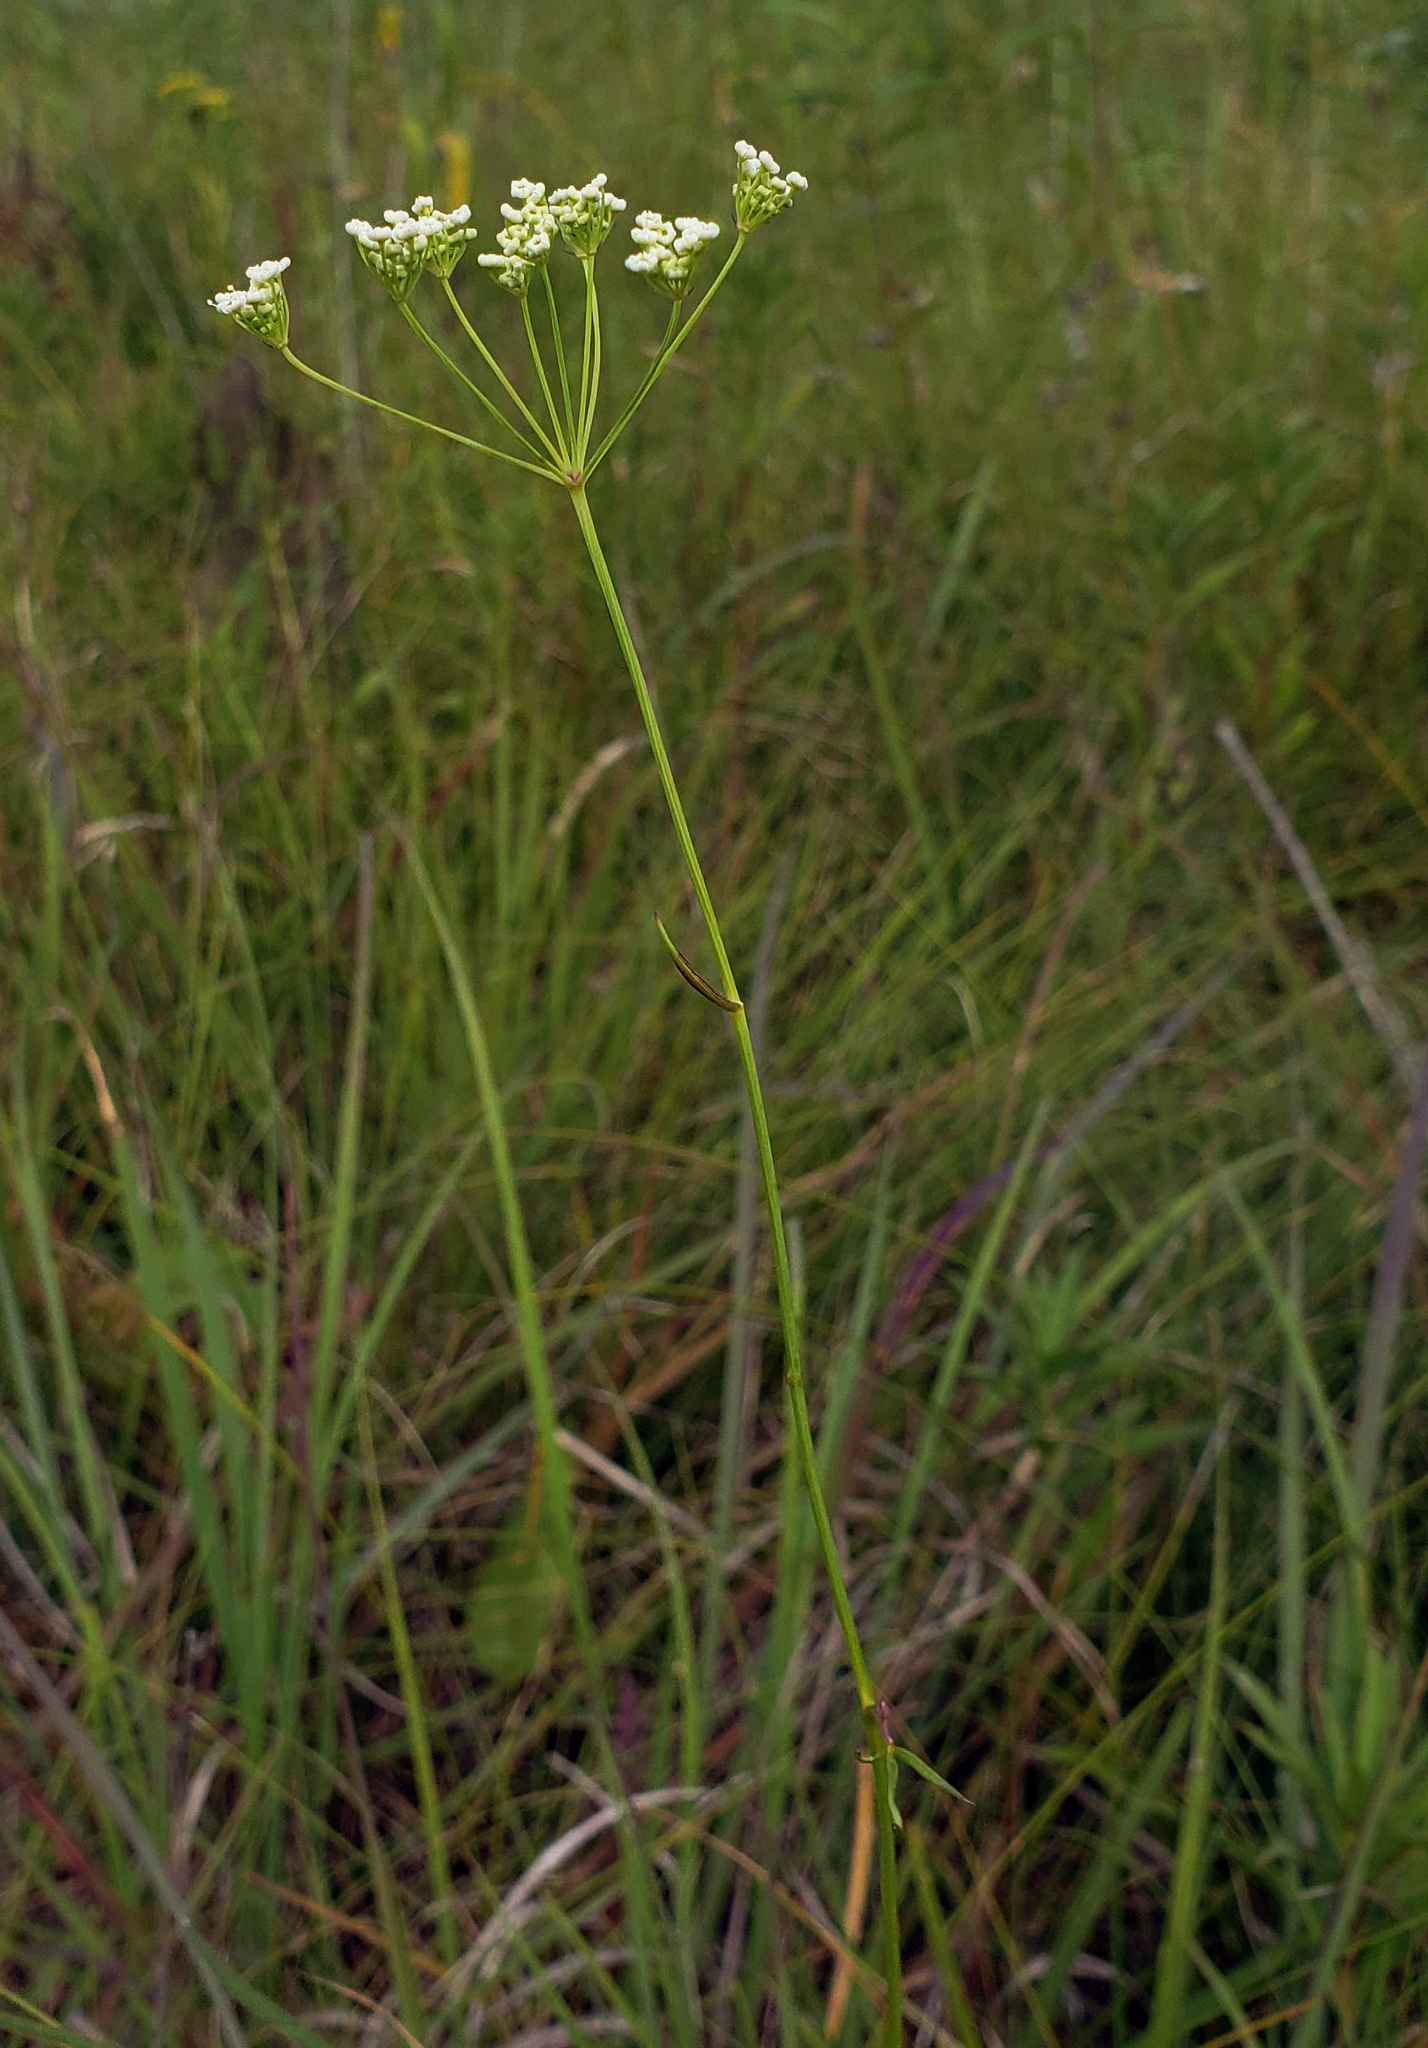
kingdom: Plantae
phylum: Tracheophyta
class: Magnoliopsida
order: Apiales
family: Apiaceae
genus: Oxypolis
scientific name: Oxypolis rigidior
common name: Cowbane
